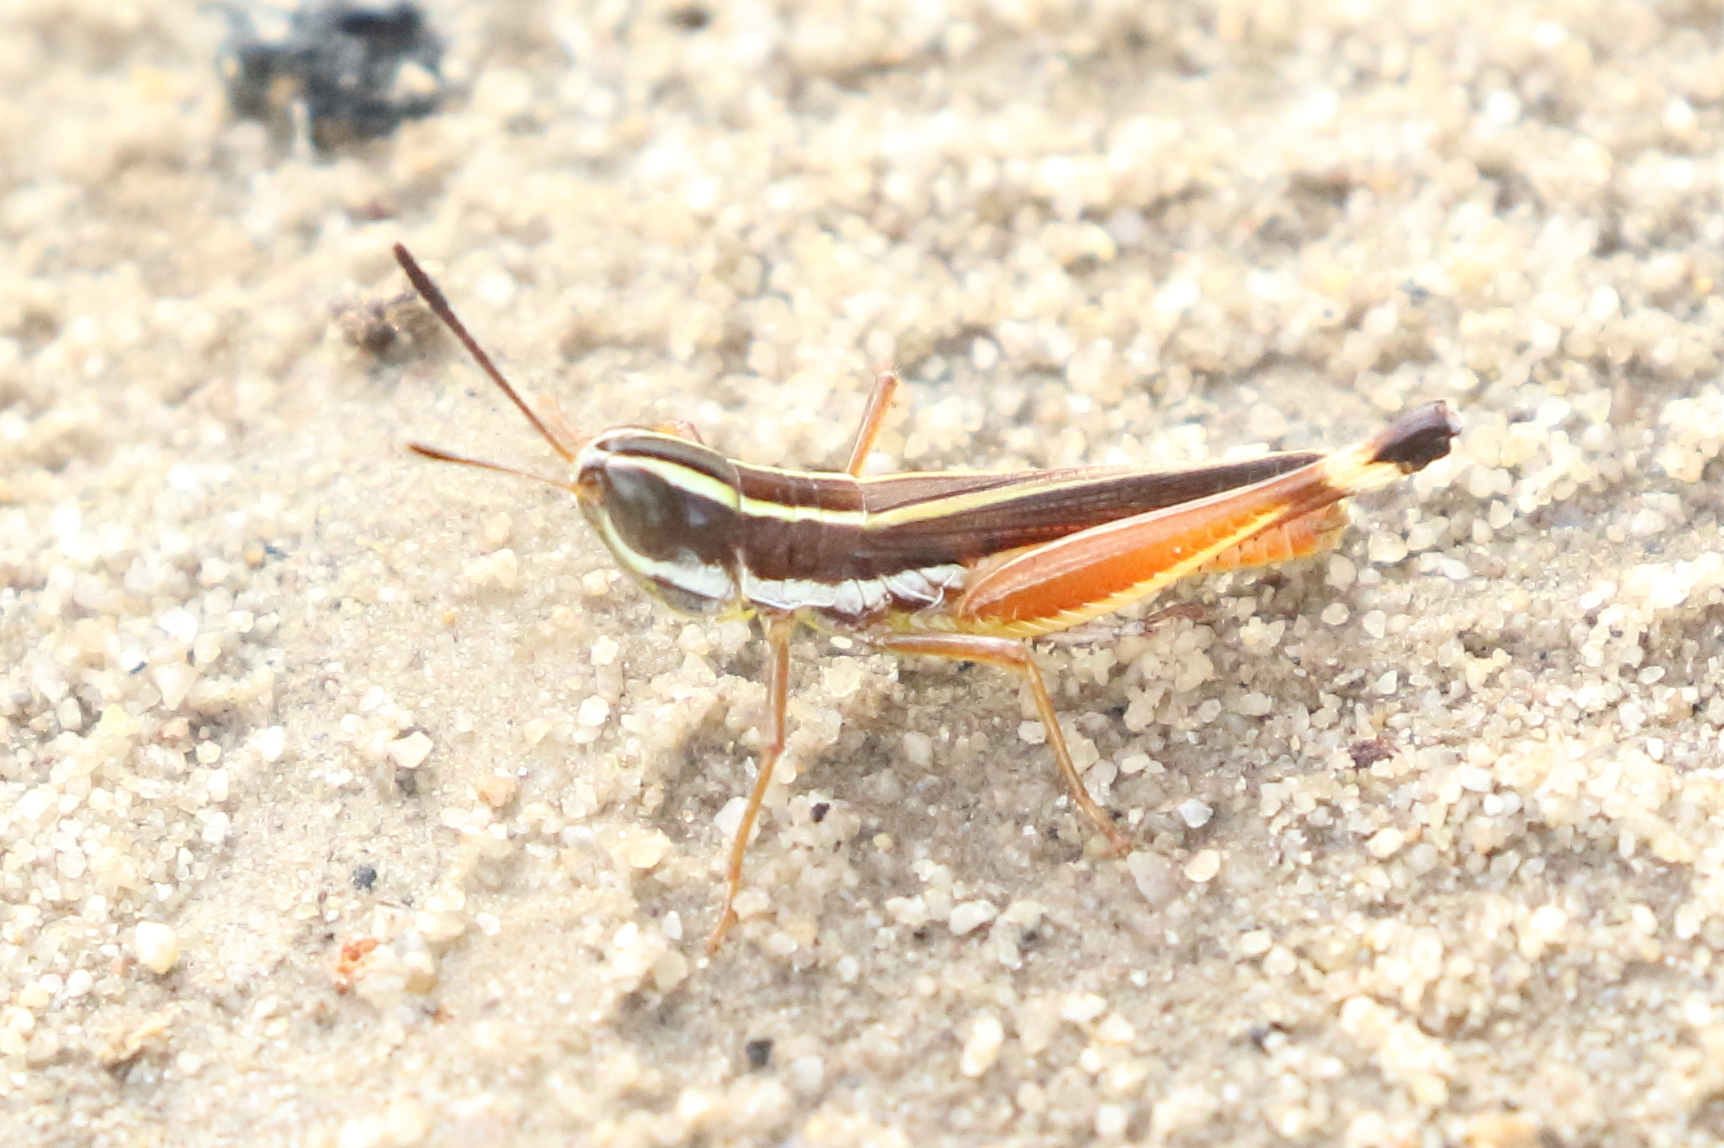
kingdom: Animalia
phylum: Arthropoda
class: Insecta
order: Orthoptera
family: Acrididae
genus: Macrotona
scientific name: Macrotona mjobergi
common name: Handsome macrotona
